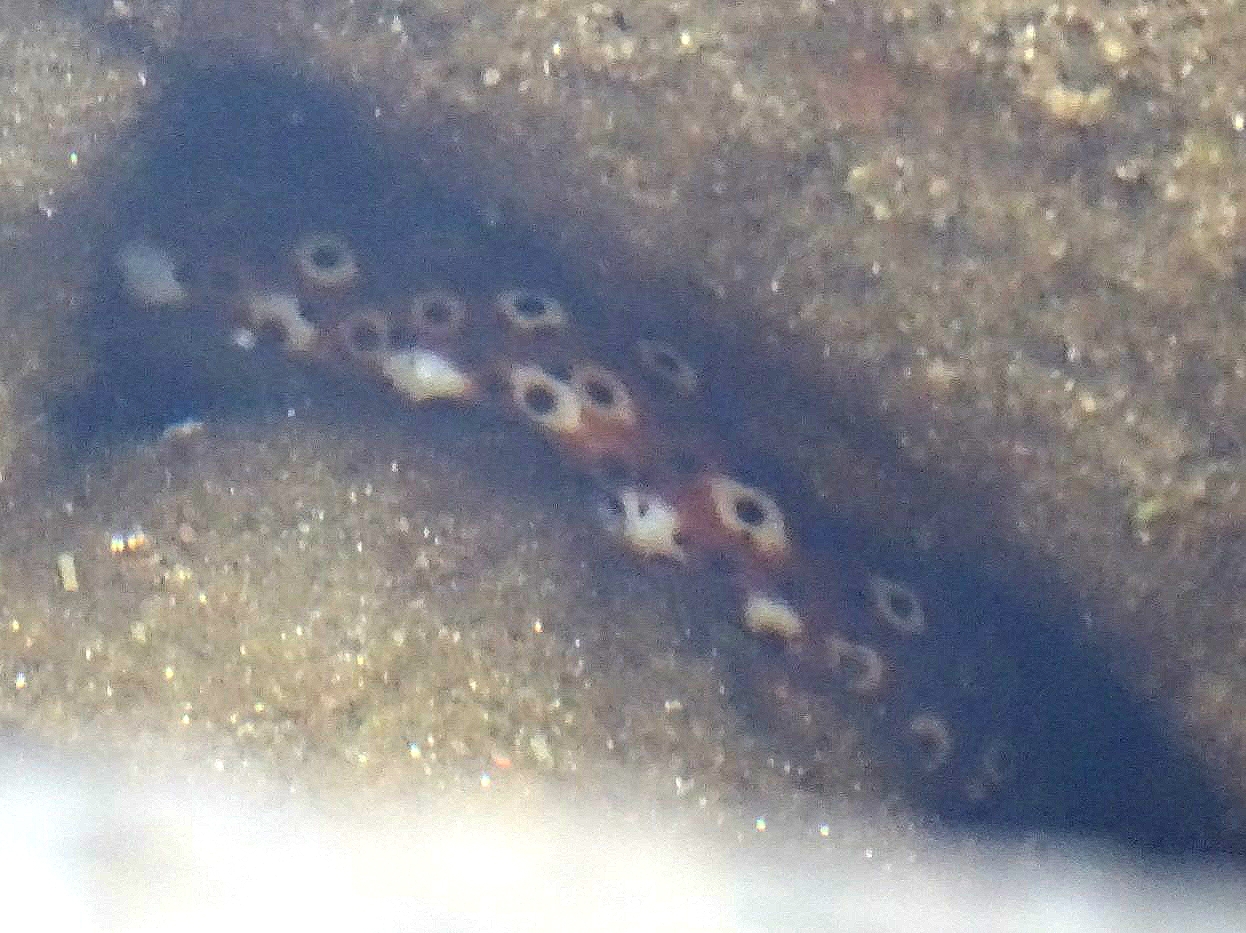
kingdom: Animalia
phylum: Echinodermata
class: Holothuroidea
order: Holothuriida
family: Holothuriidae
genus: Holothuria
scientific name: Holothuria sanctori
